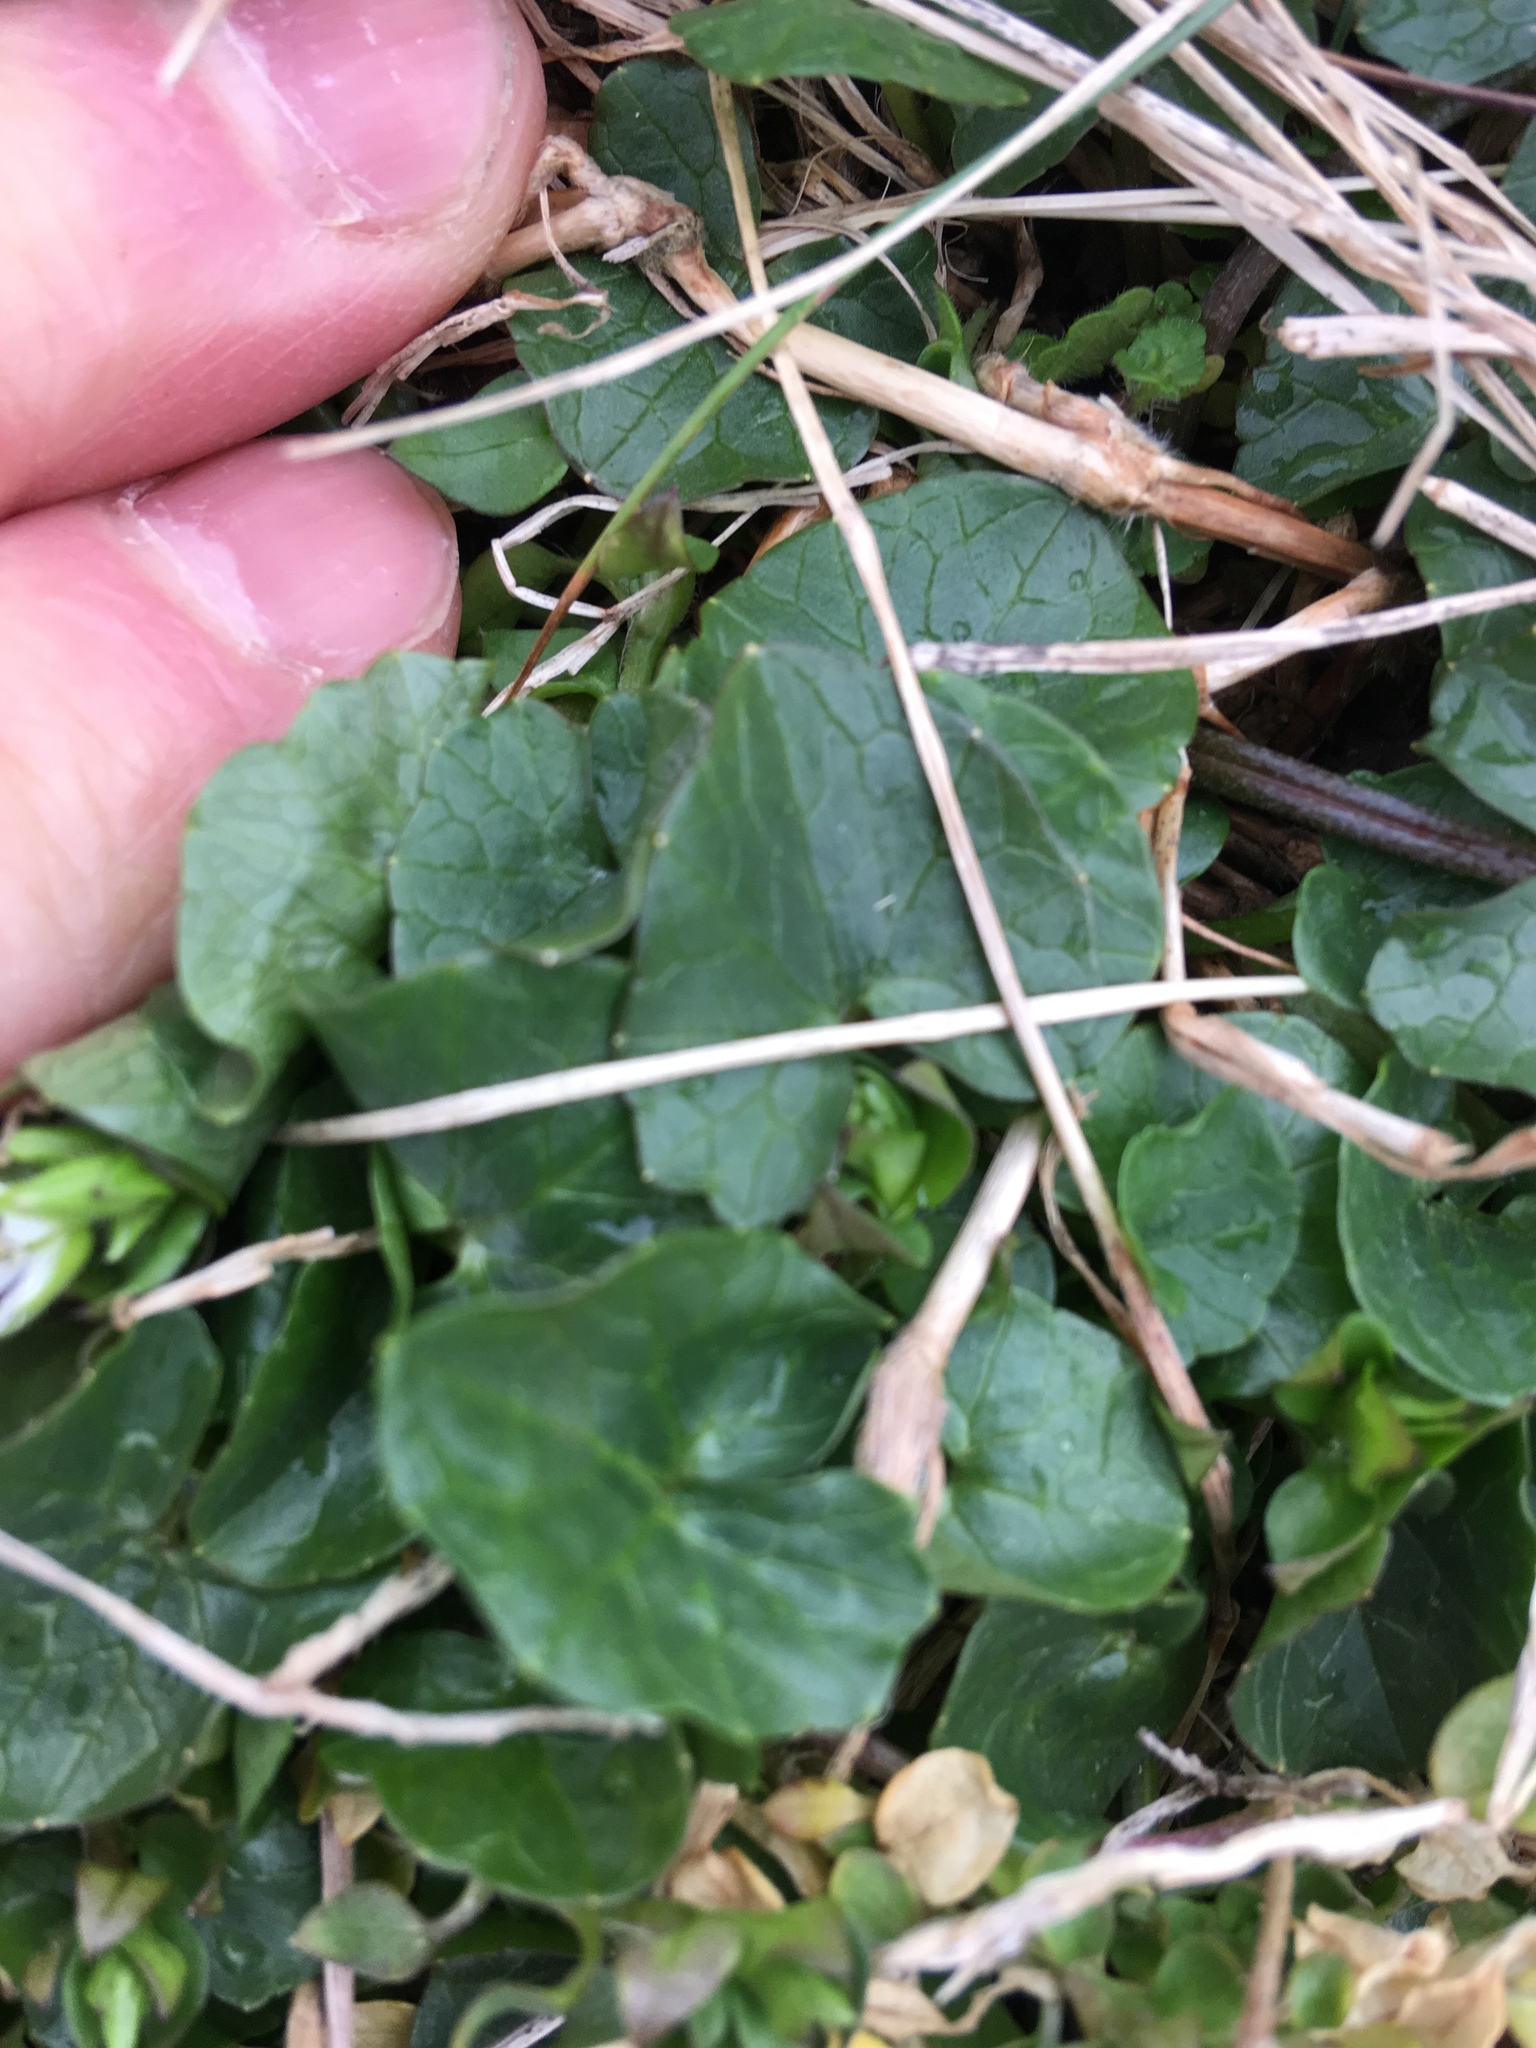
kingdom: Plantae
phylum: Tracheophyta
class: Magnoliopsida
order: Ranunculales
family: Ranunculaceae
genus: Ficaria
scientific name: Ficaria verna
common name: Lesser celandine
